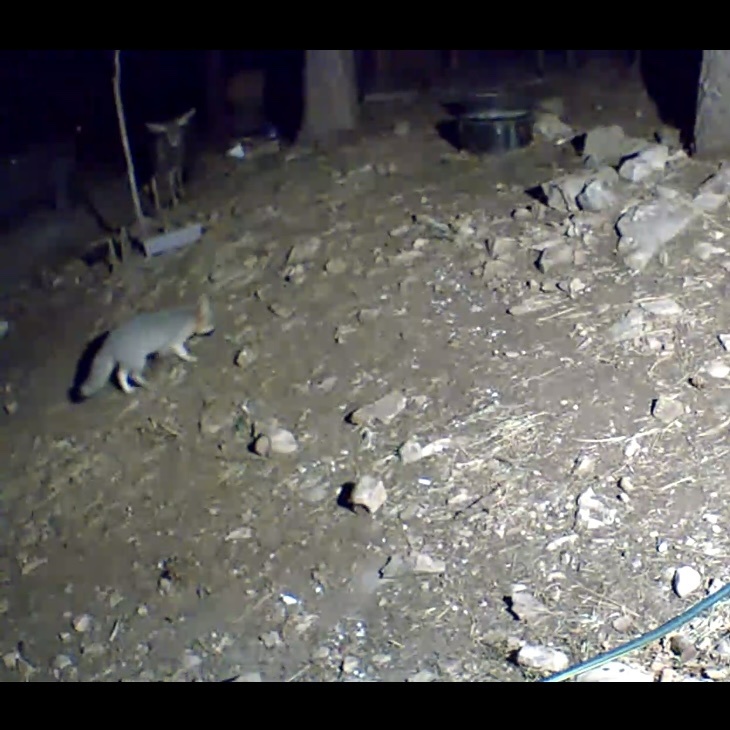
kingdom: Animalia
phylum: Chordata
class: Mammalia
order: Carnivora
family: Canidae
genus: Urocyon
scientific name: Urocyon cinereoargenteus
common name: Gray fox
